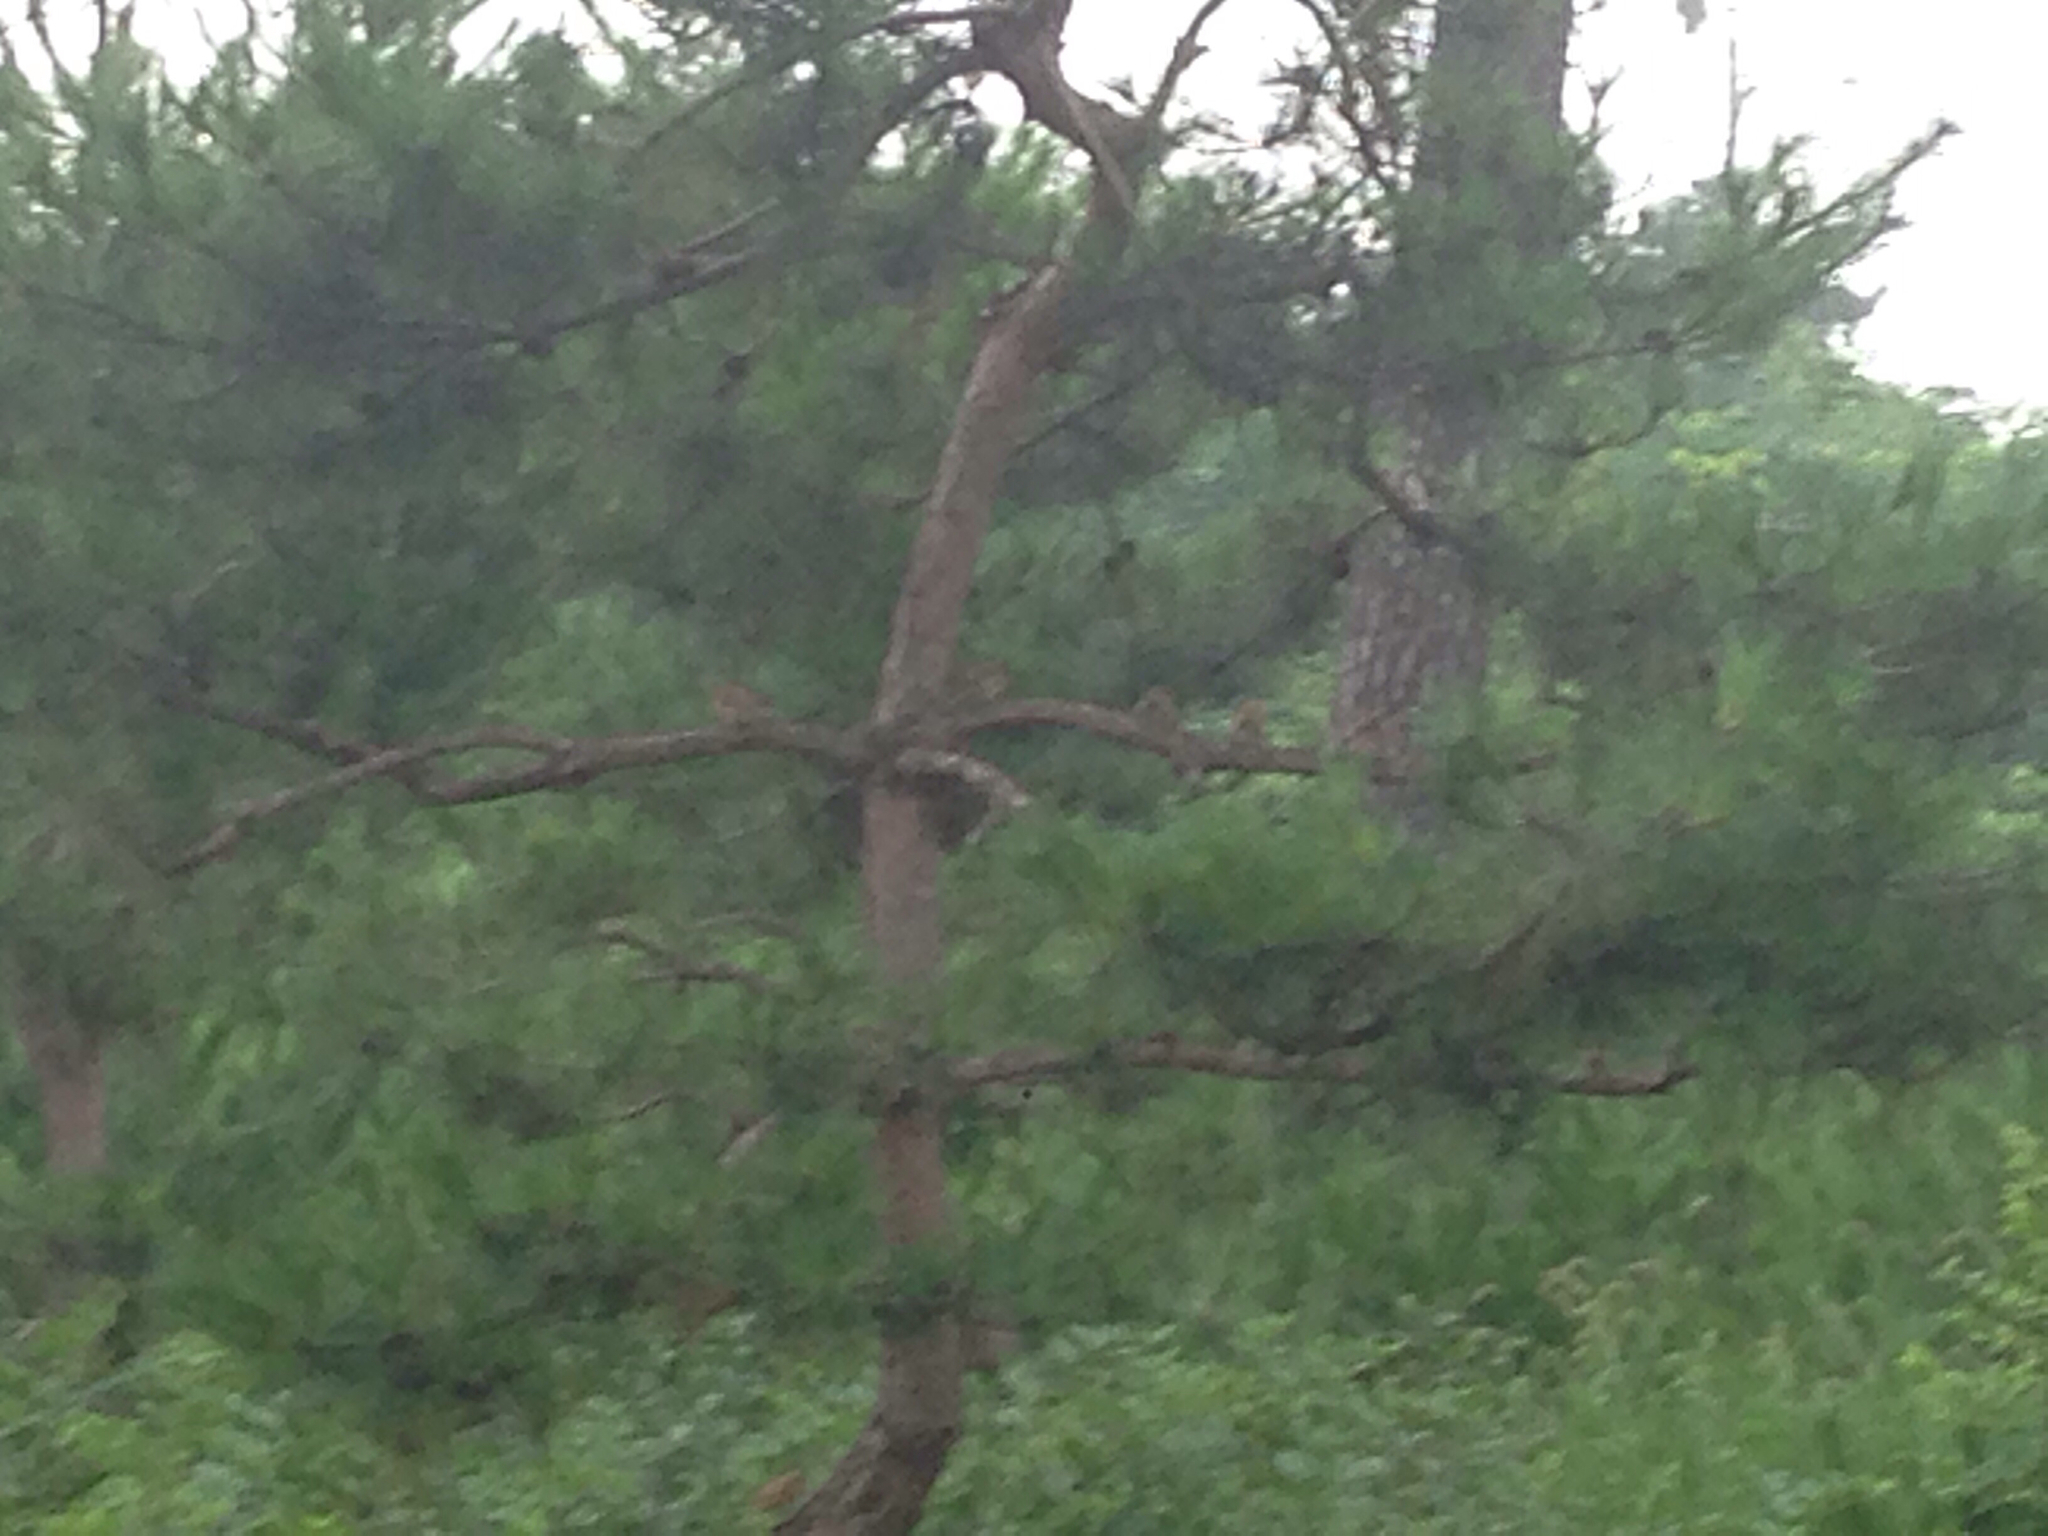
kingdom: Animalia
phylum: Chordata
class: Aves
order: Passeriformes
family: Passeridae
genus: Passer
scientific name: Passer montanus
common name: Eurasian tree sparrow
